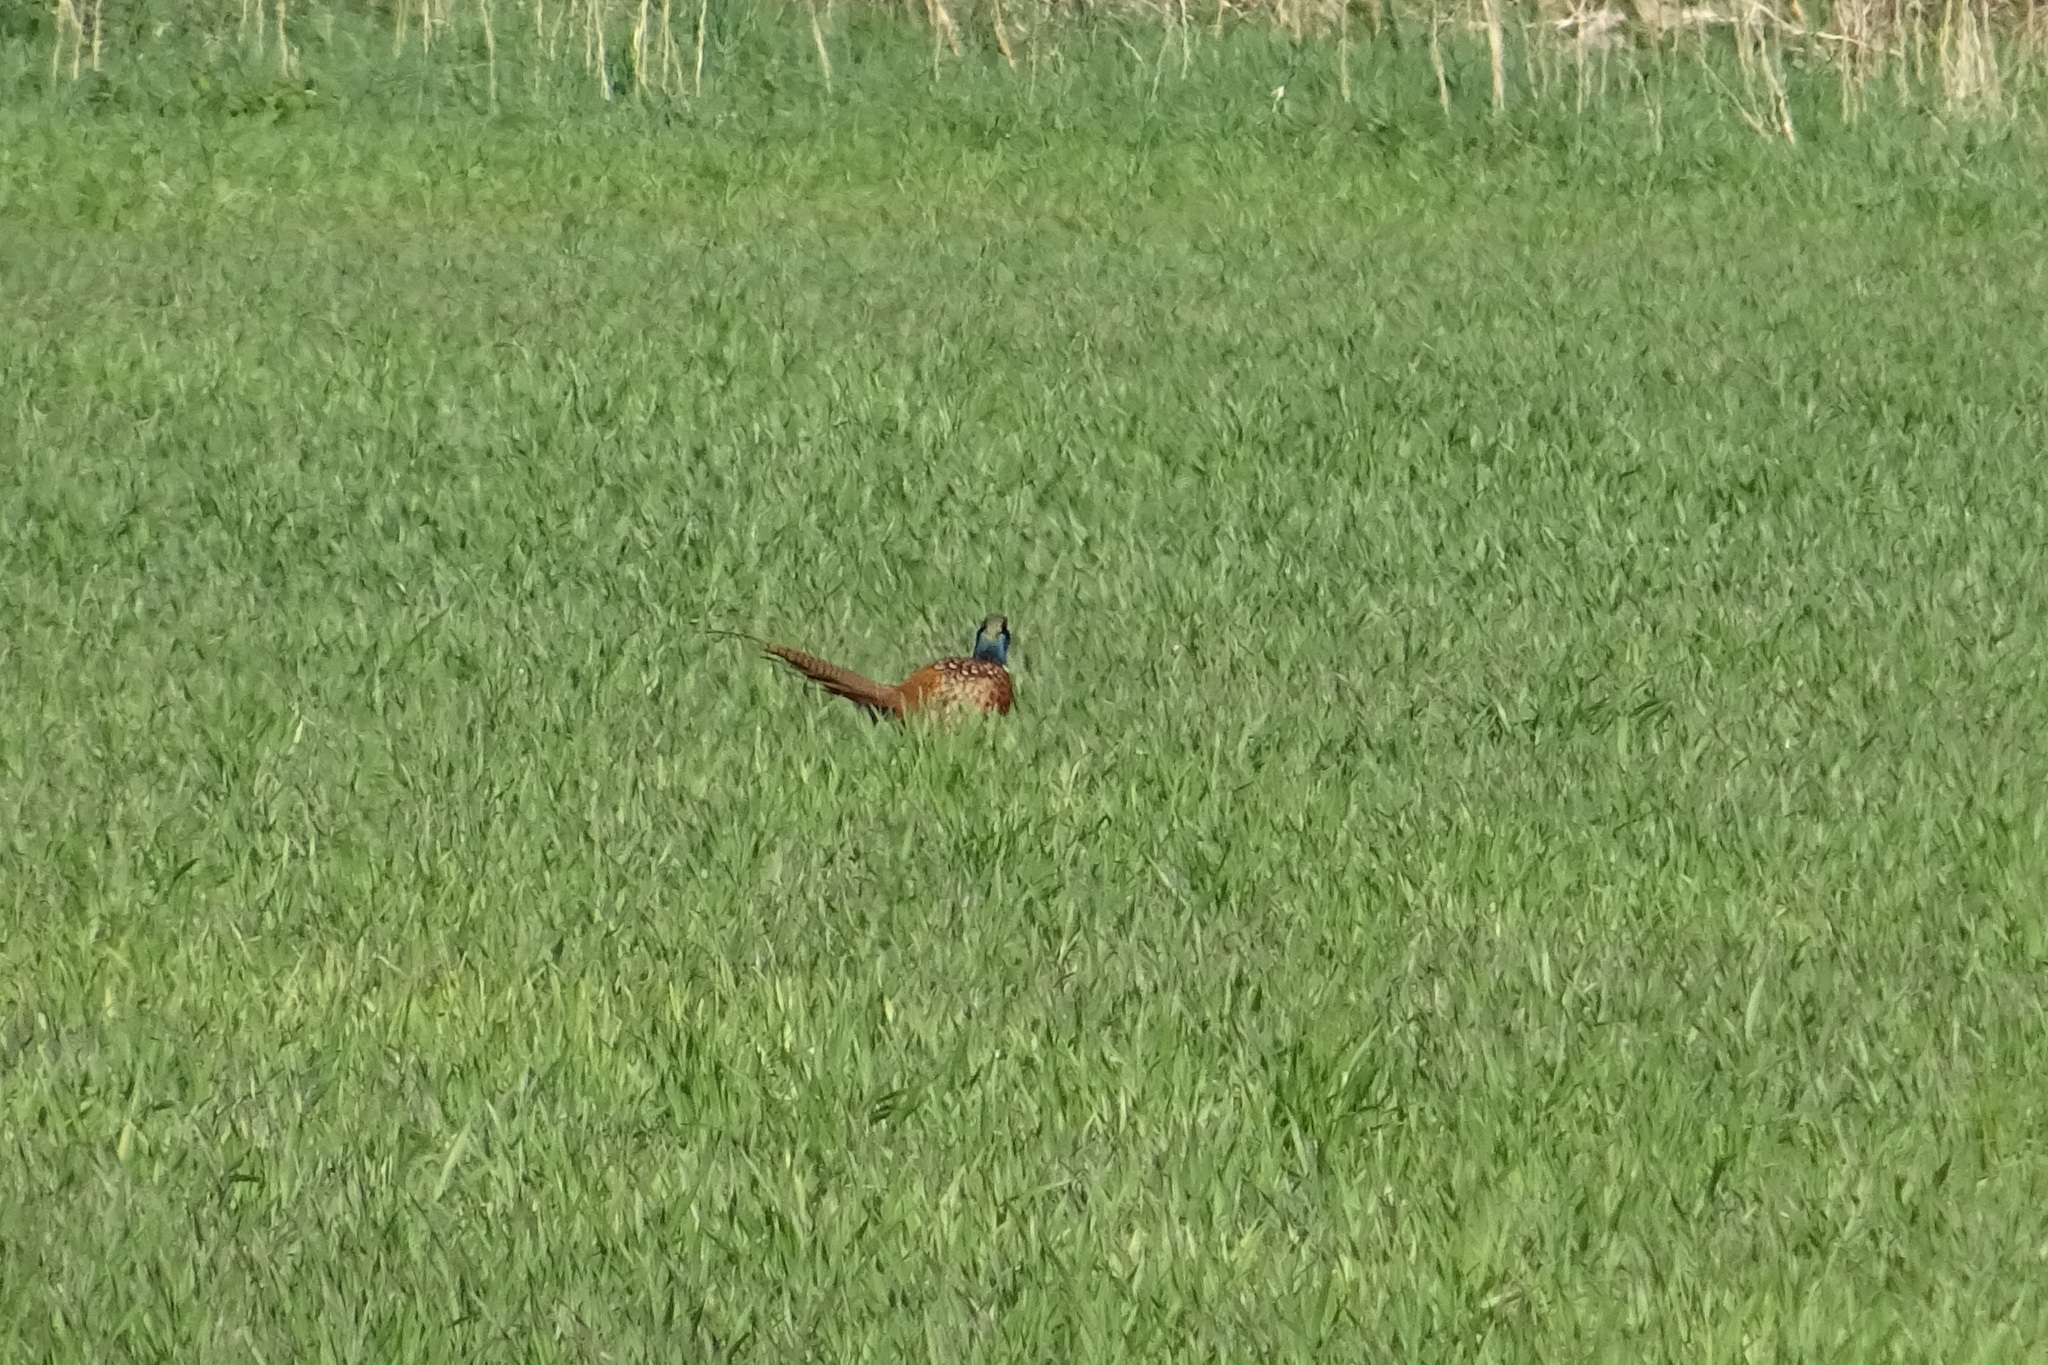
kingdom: Animalia
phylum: Chordata
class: Aves
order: Galliformes
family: Phasianidae
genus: Phasianus
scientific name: Phasianus colchicus
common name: Common pheasant
